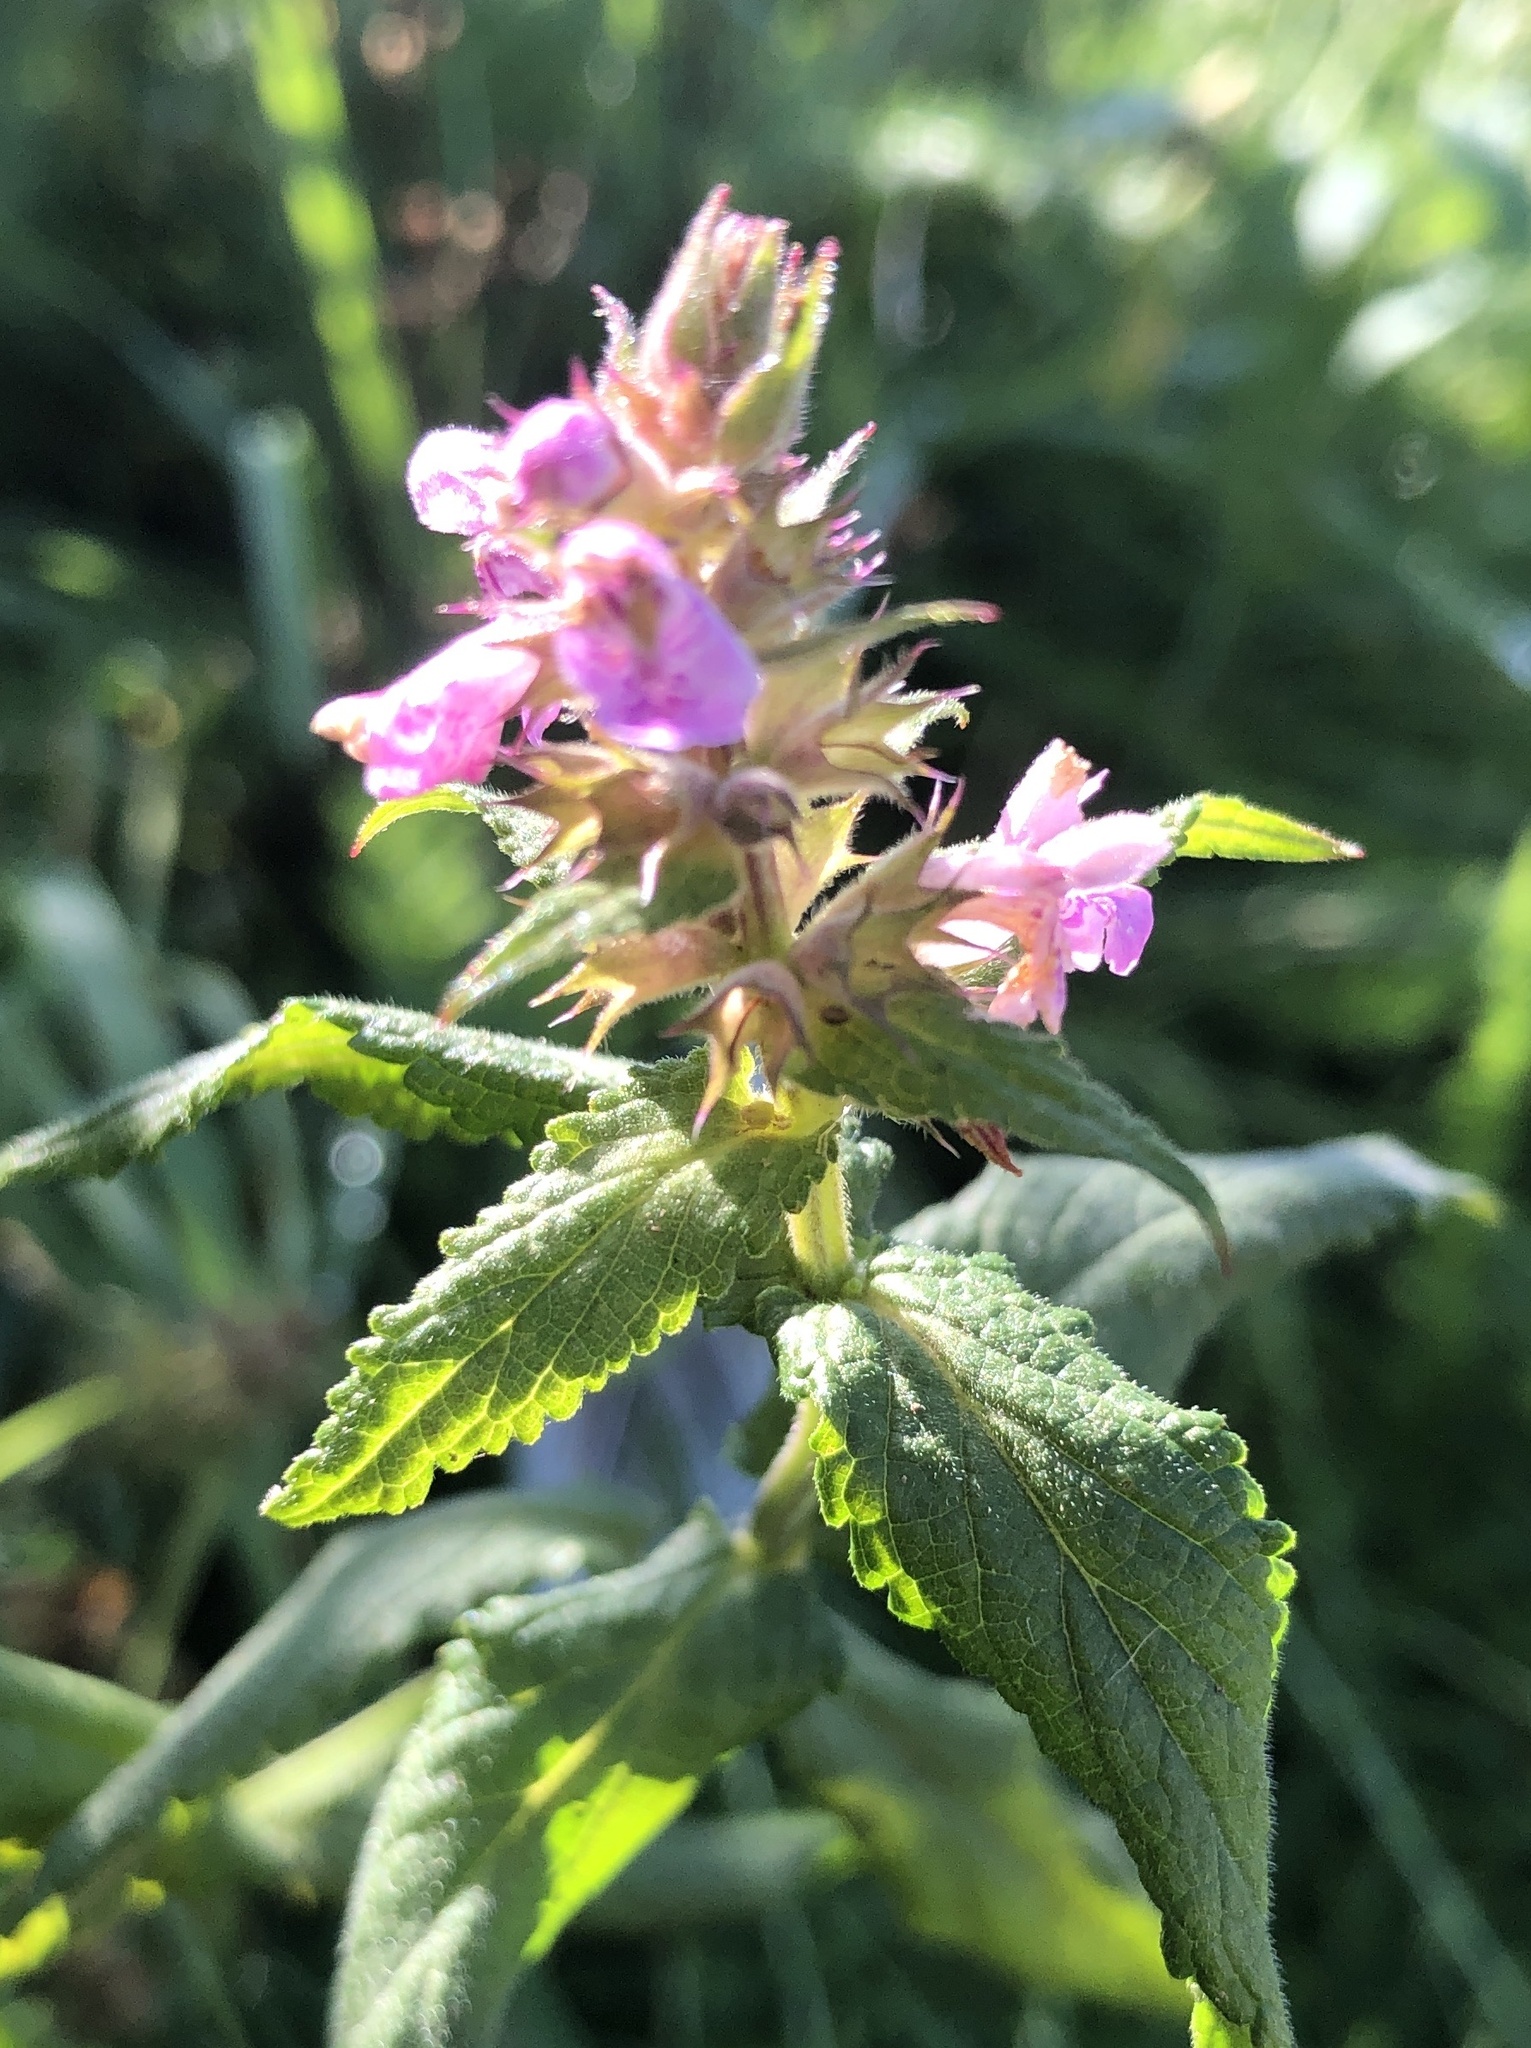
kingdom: Plantae
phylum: Tracheophyta
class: Magnoliopsida
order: Lamiales
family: Lamiaceae
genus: Stachys
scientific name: Stachys palustris
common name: Marsh woundwort
